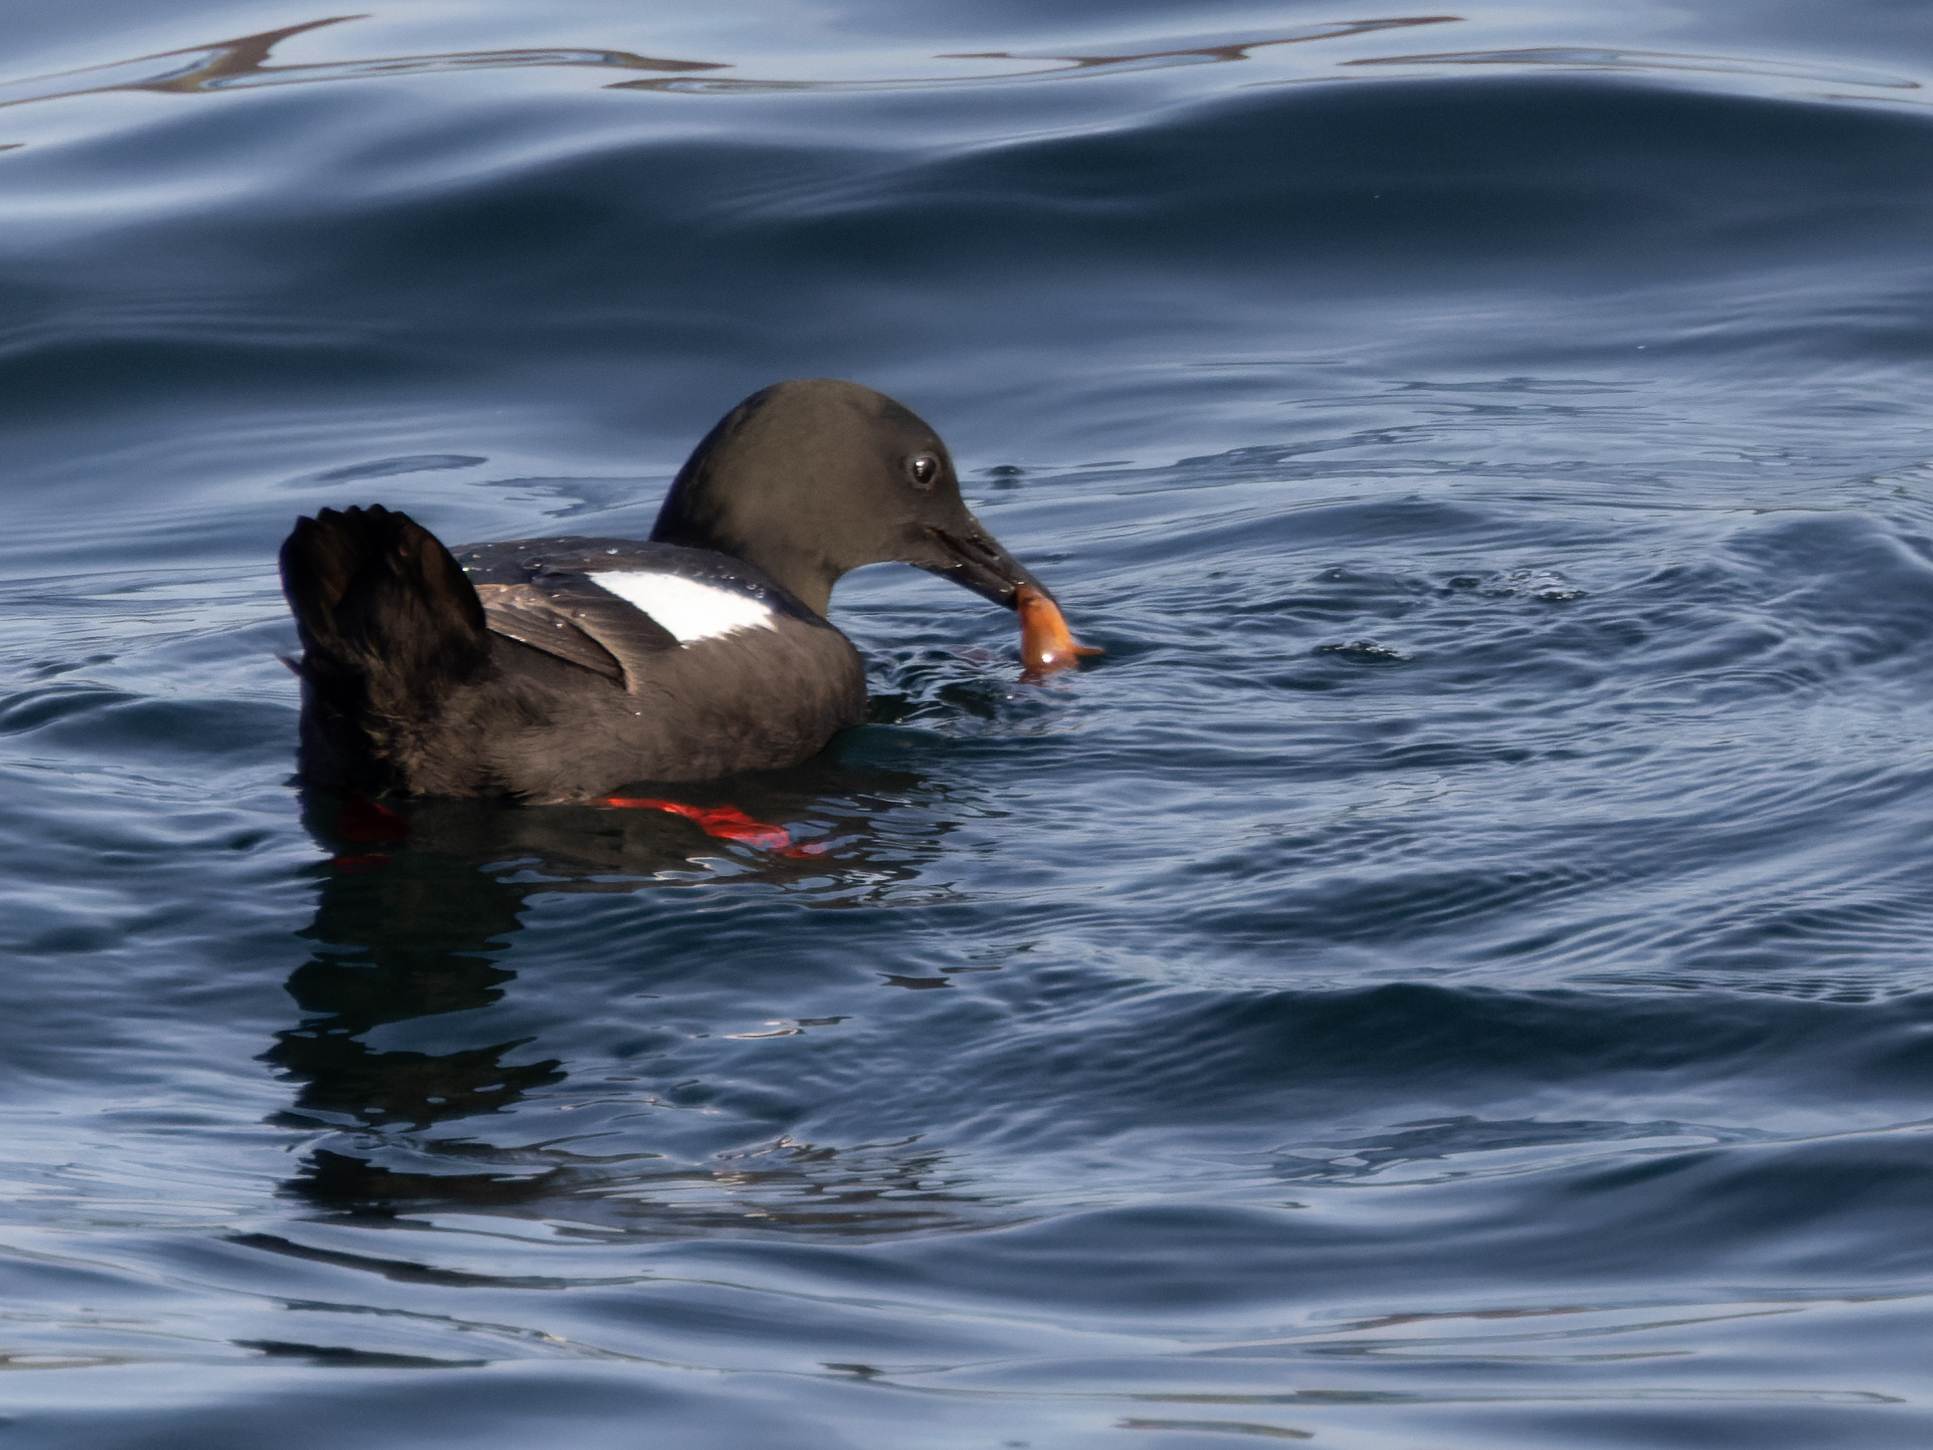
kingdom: Animalia
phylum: Chordata
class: Aves
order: Charadriiformes
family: Alcidae
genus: Cepphus
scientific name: Cepphus grylle
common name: Black guillemot
